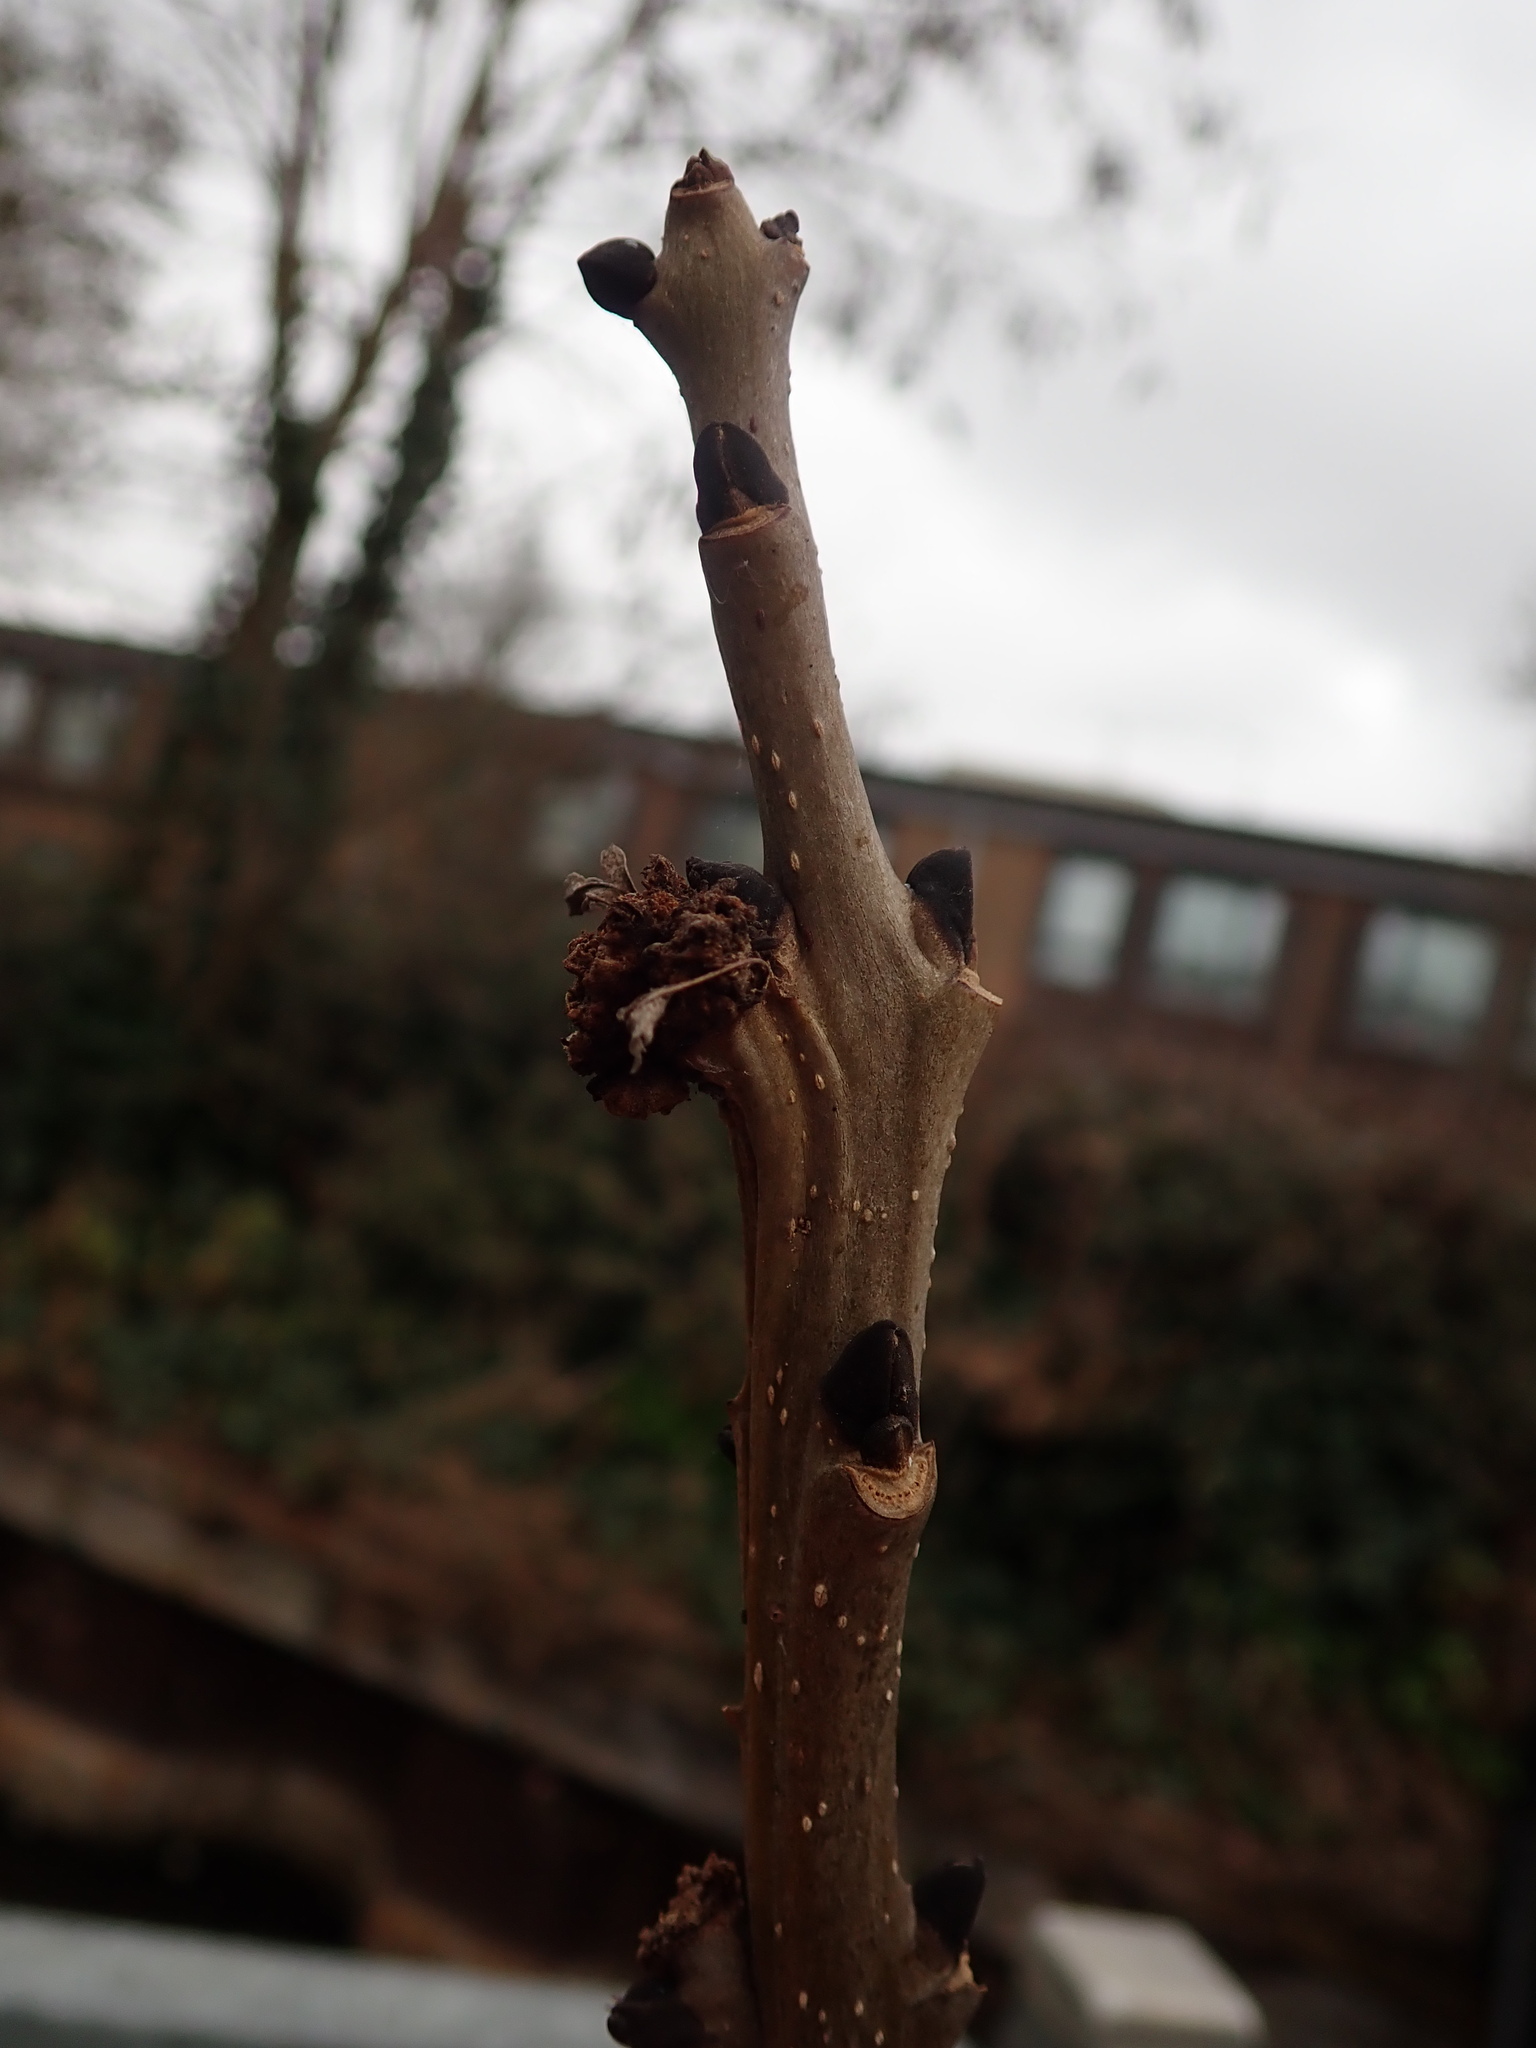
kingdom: Plantae
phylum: Tracheophyta
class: Magnoliopsida
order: Lamiales
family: Oleaceae
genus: Fraxinus
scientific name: Fraxinus excelsior
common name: European ash
